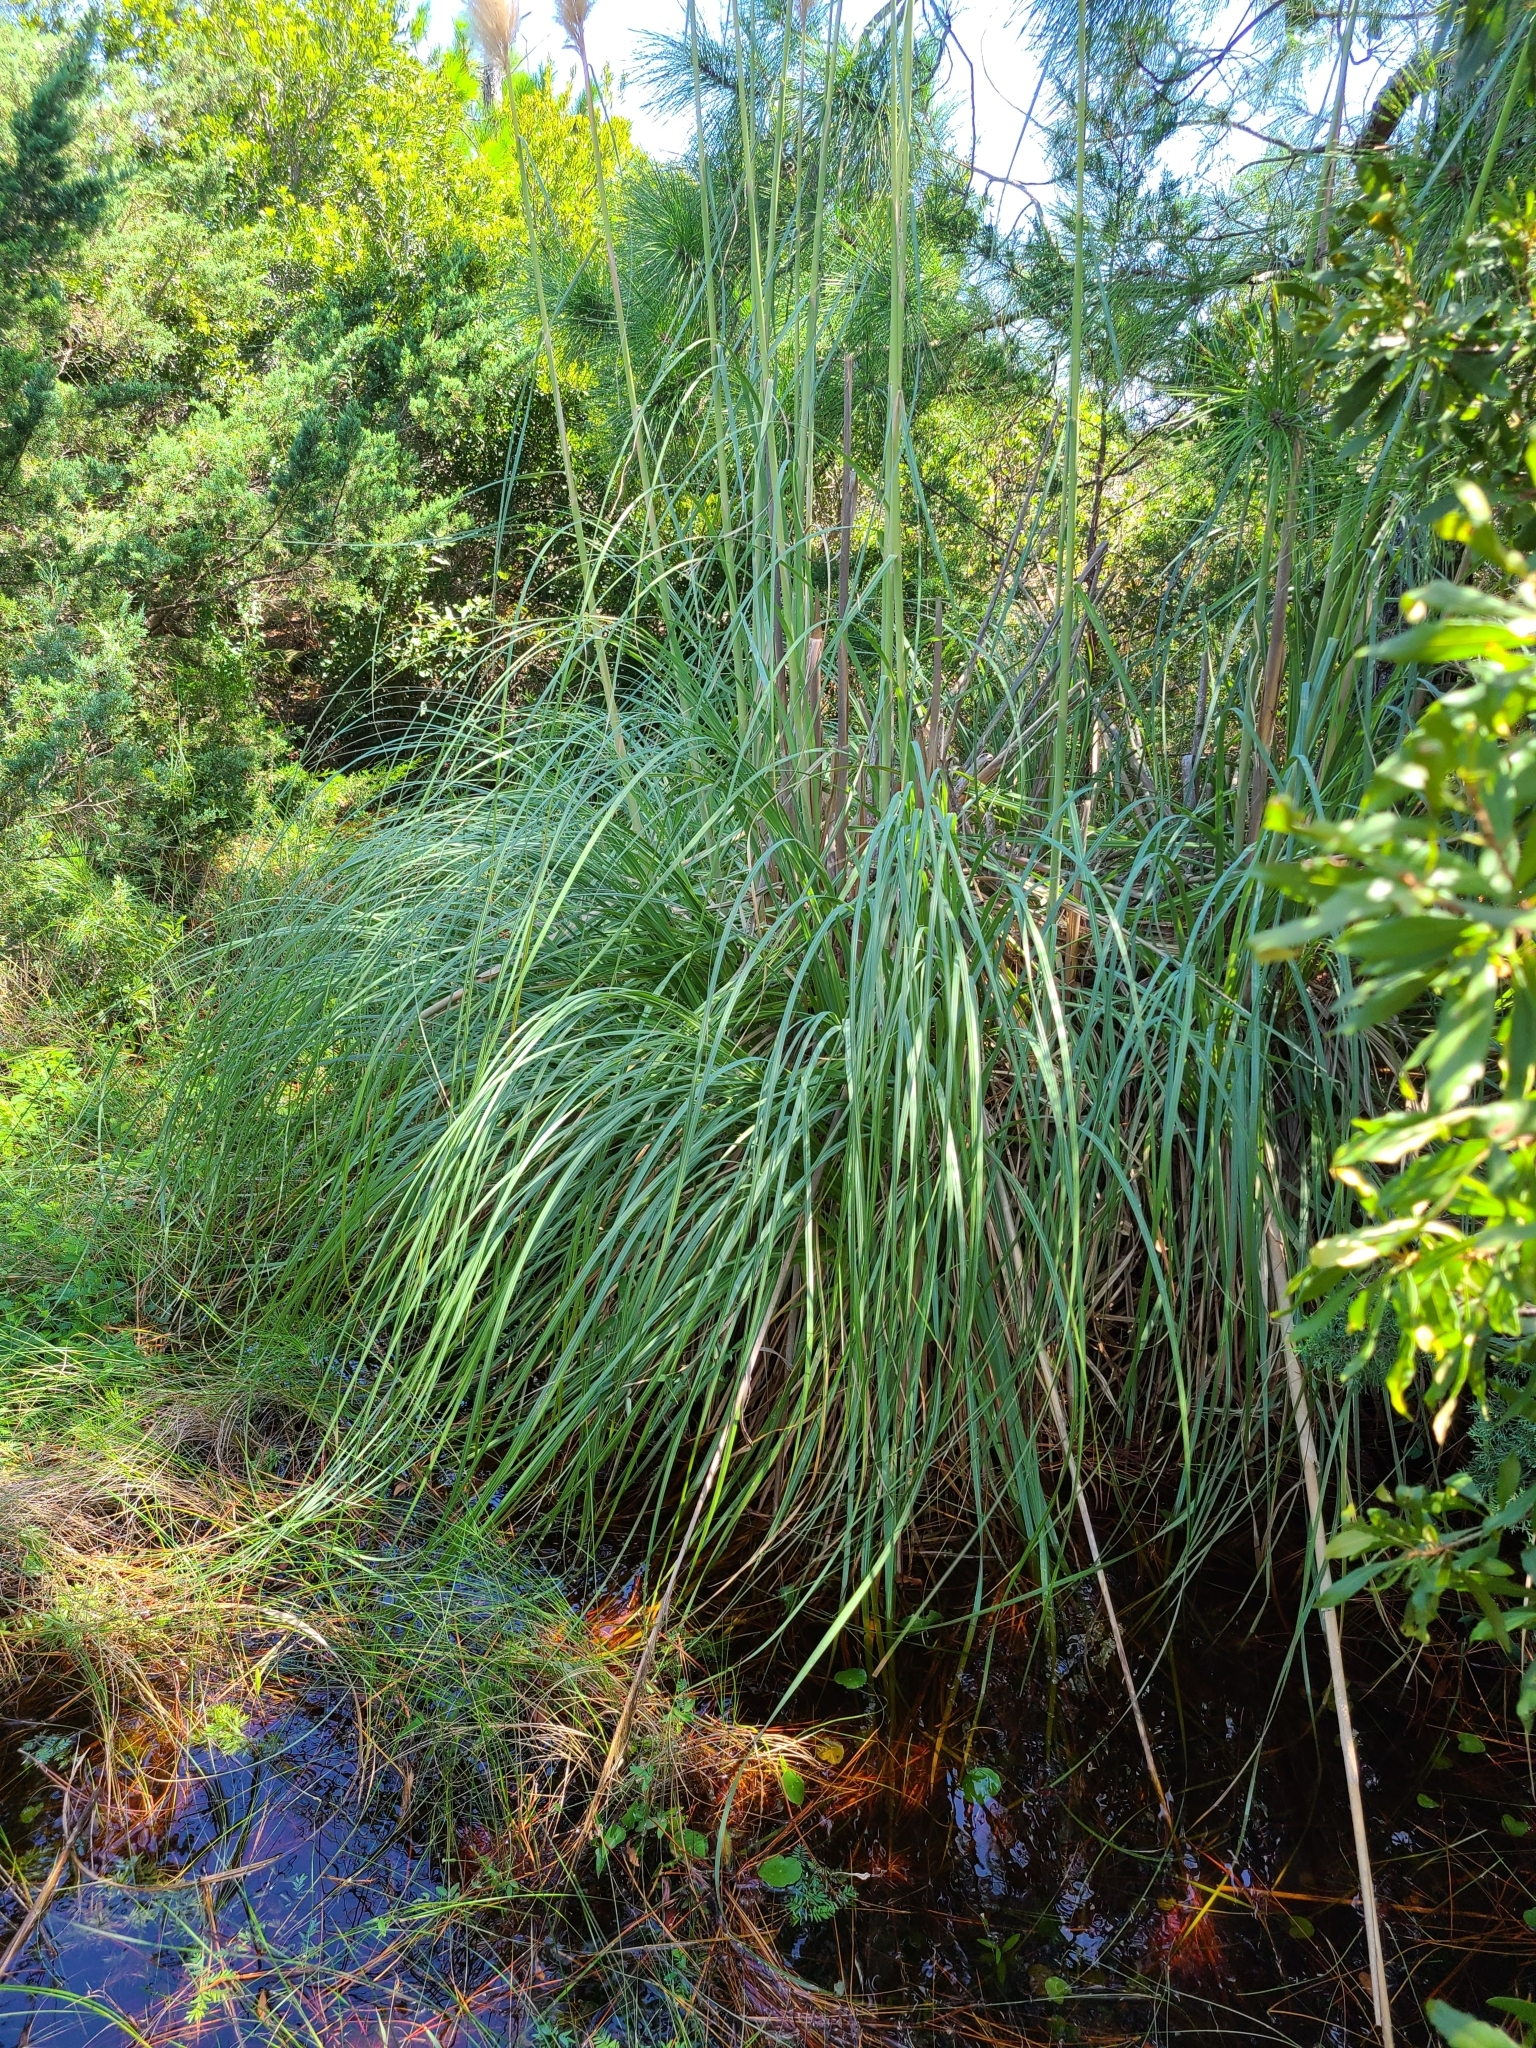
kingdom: Plantae
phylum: Tracheophyta
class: Liliopsida
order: Poales
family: Poaceae
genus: Cortaderia
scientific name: Cortaderia selloana
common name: Uruguayan pampas grass
